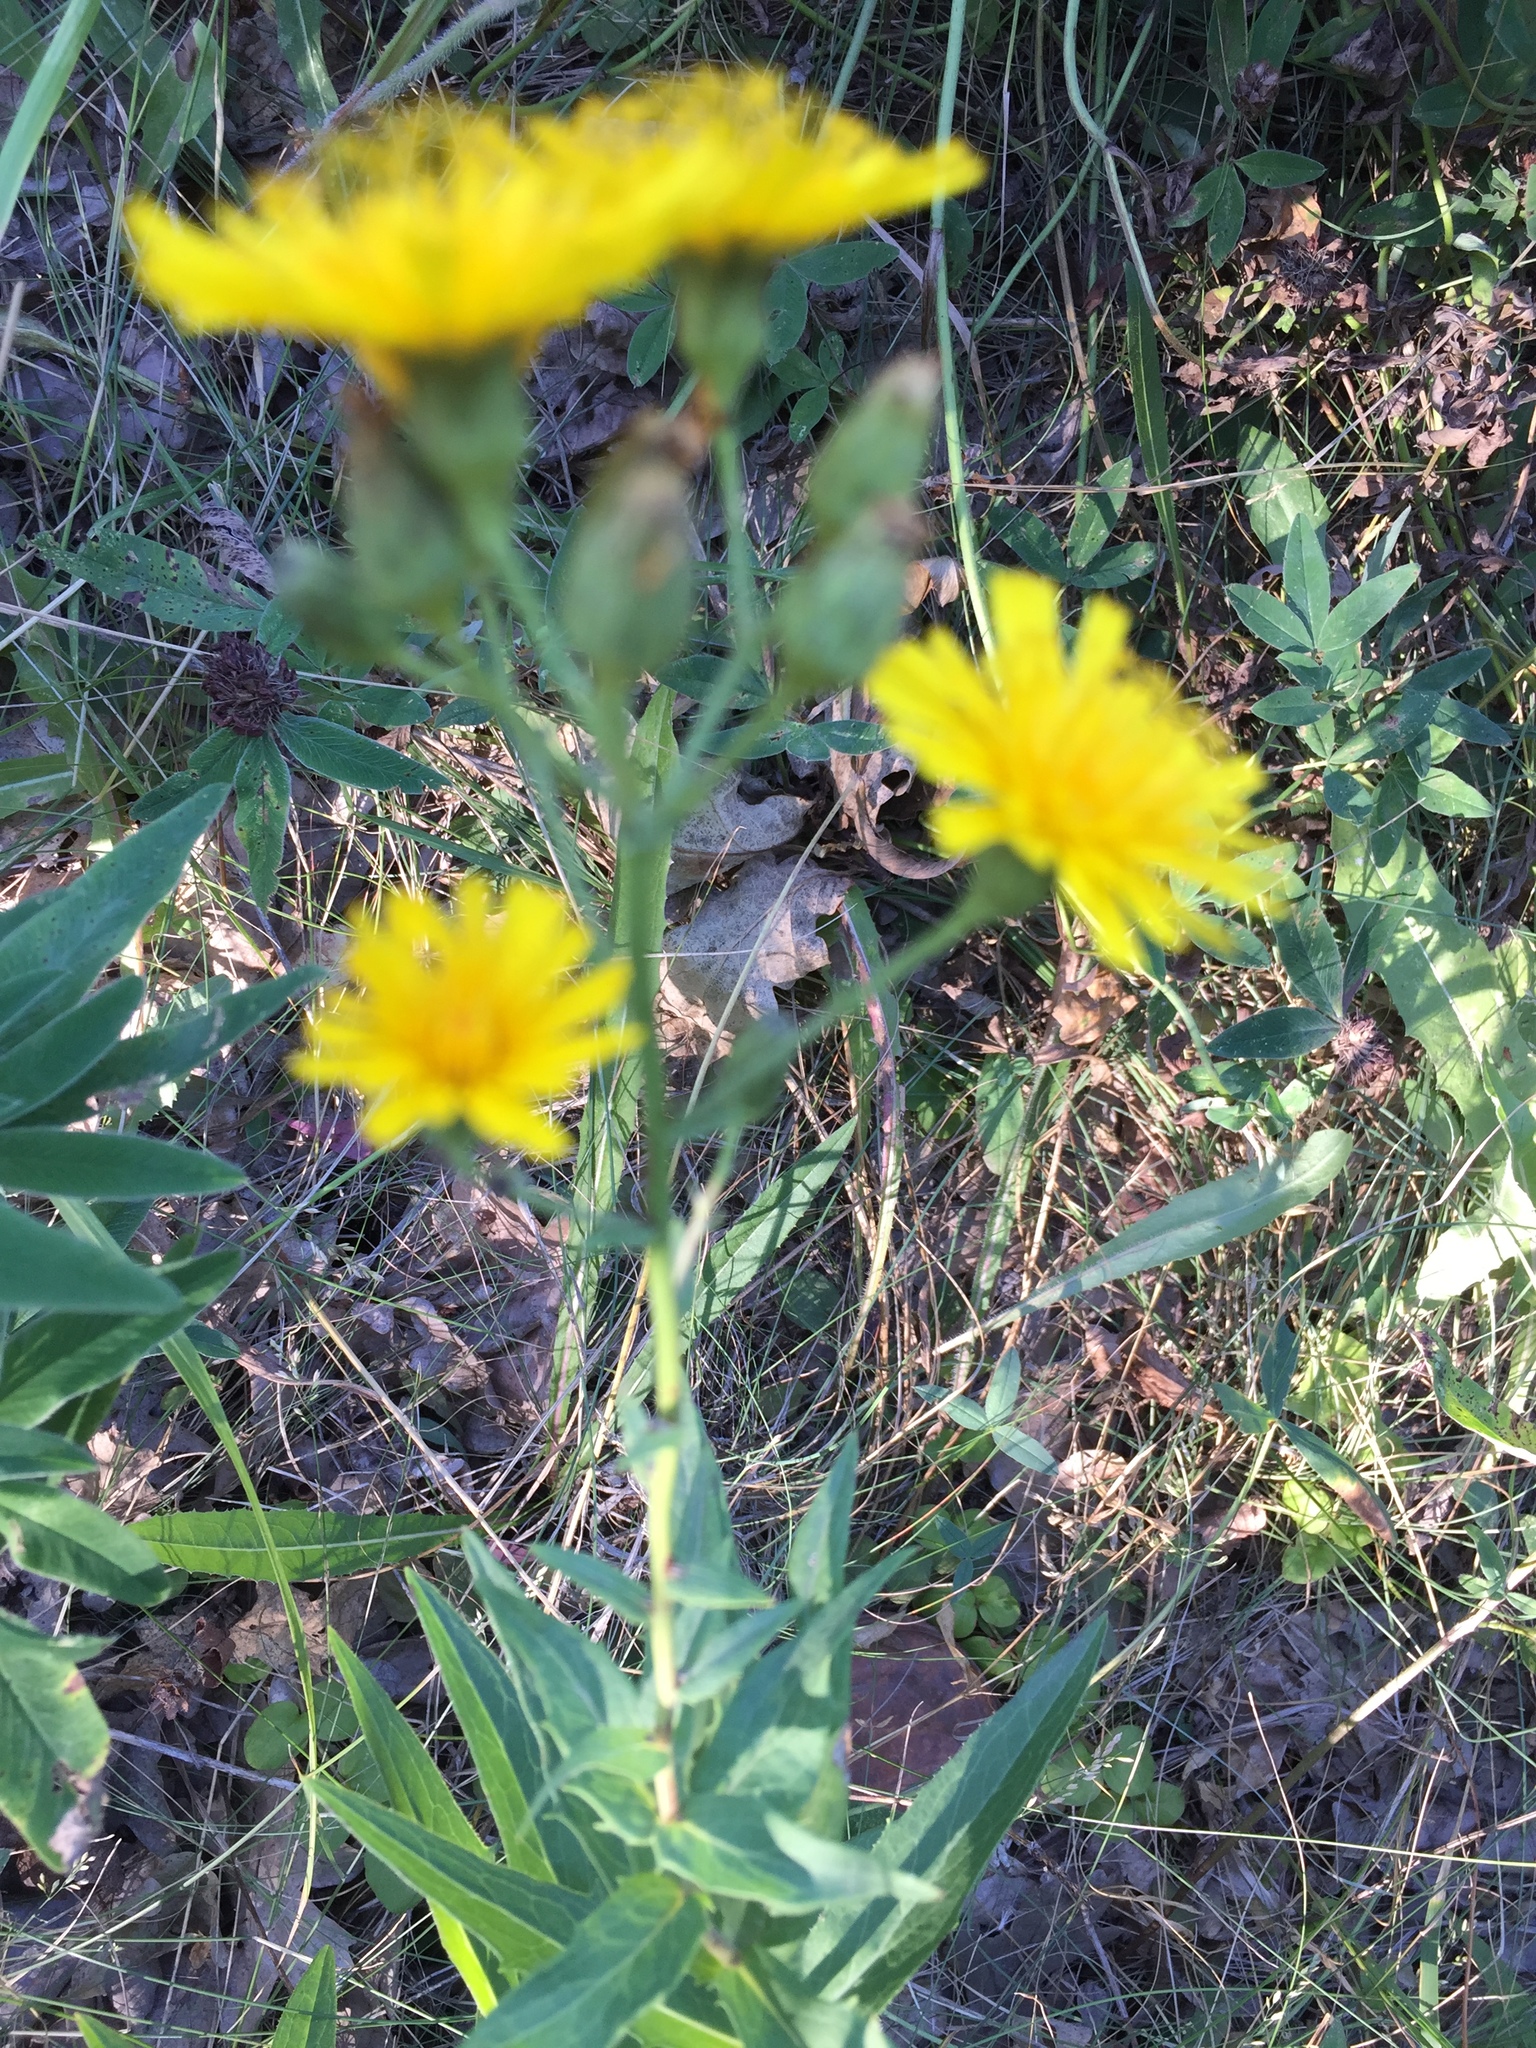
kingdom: Plantae
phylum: Tracheophyta
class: Magnoliopsida
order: Asterales
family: Asteraceae
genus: Hieracium
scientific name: Hieracium umbellatum
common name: Northern hawkweed
